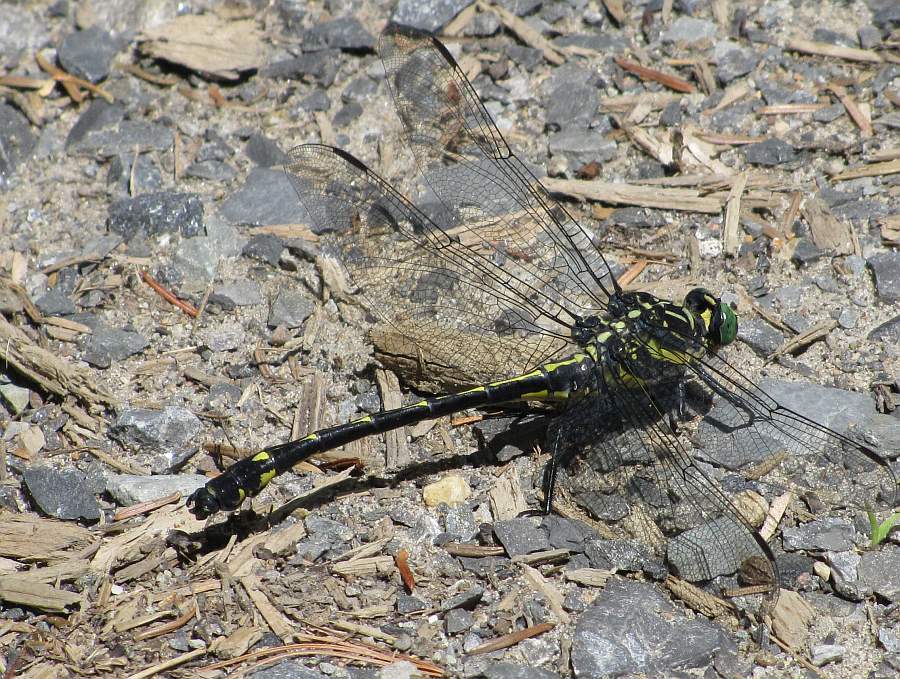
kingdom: Animalia
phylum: Arthropoda
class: Insecta
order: Odonata
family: Gomphidae
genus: Hagenius
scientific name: Hagenius brevistylus
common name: Dragonhunter
